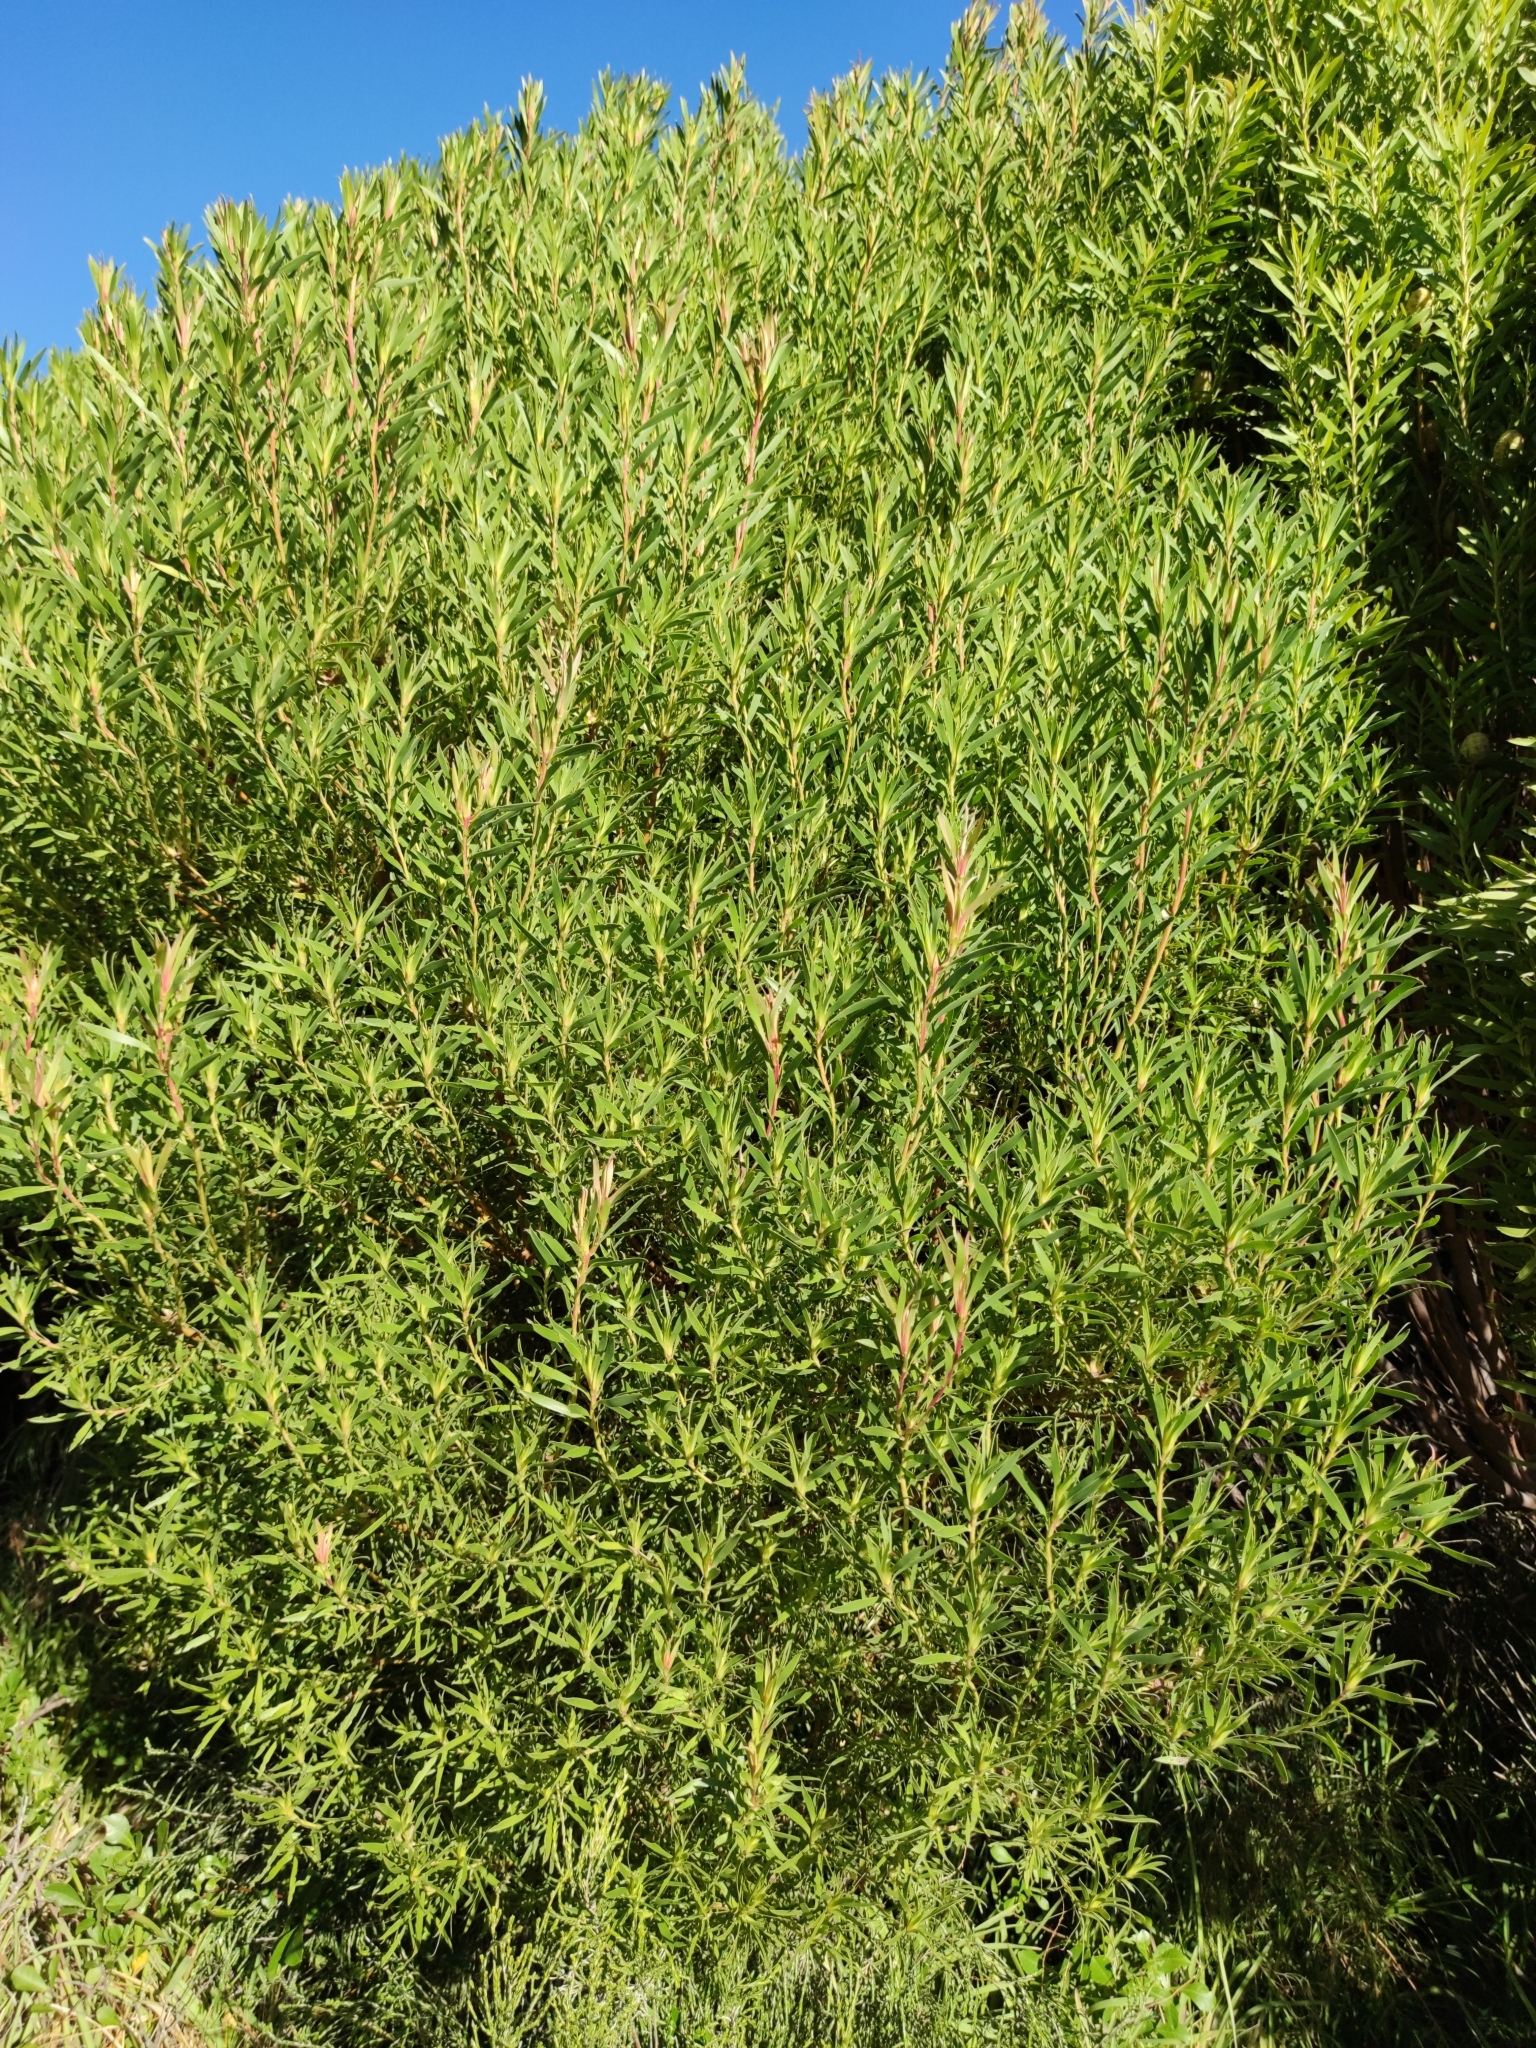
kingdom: Plantae
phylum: Tracheophyta
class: Magnoliopsida
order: Proteales
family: Proteaceae
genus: Leucadendron
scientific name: Leucadendron coniferum
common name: Dune conebush
